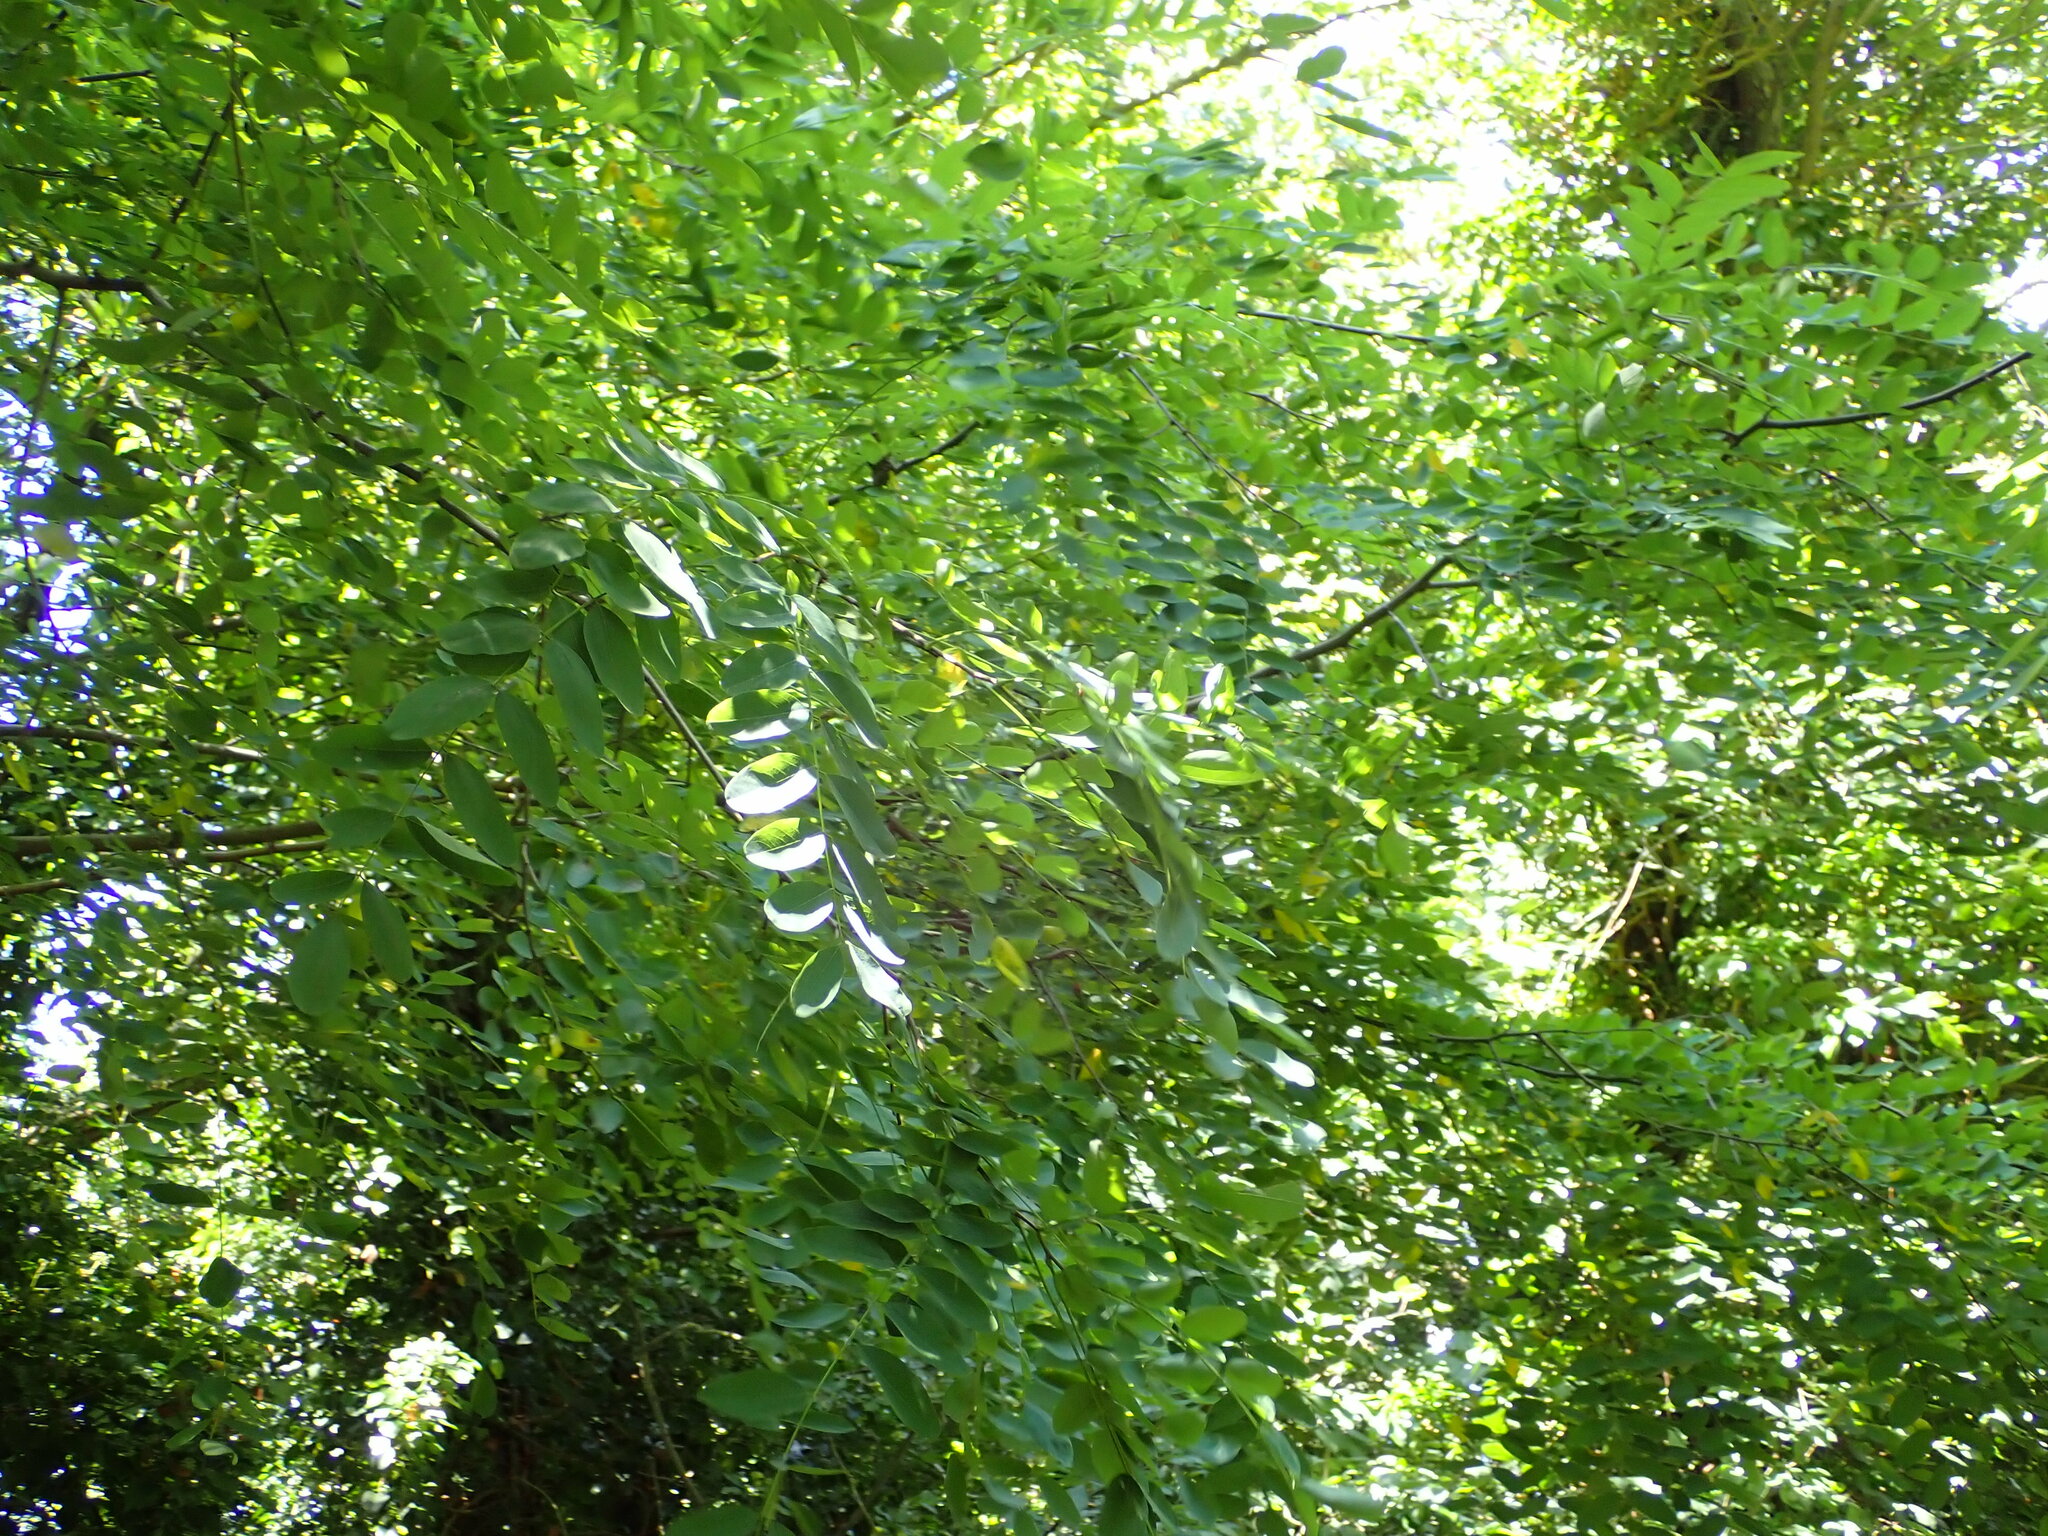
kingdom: Plantae
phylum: Tracheophyta
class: Magnoliopsida
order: Fabales
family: Fabaceae
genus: Robinia
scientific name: Robinia pseudoacacia
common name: Black locust
